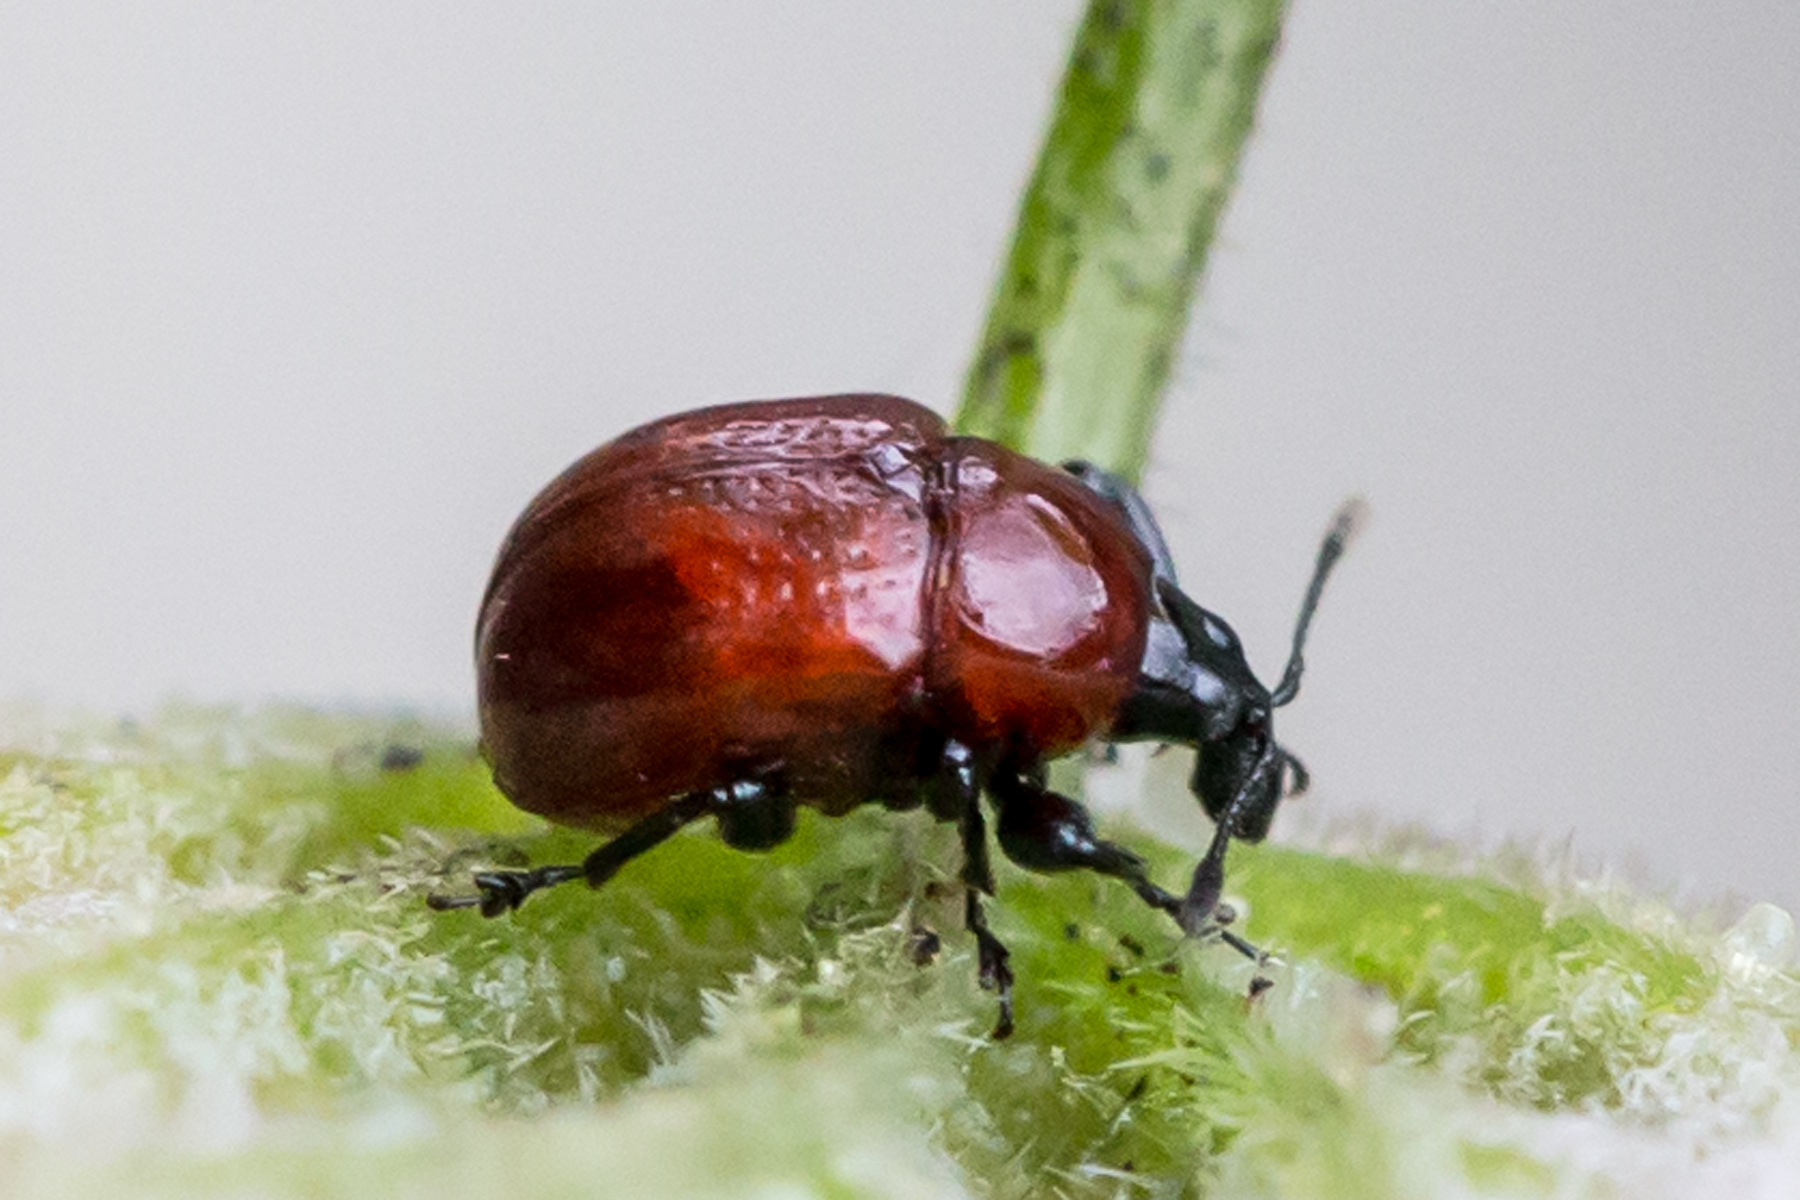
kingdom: Animalia
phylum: Arthropoda
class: Insecta
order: Coleoptera
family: Attelabidae
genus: Synolabus
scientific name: Synolabus nigripes
